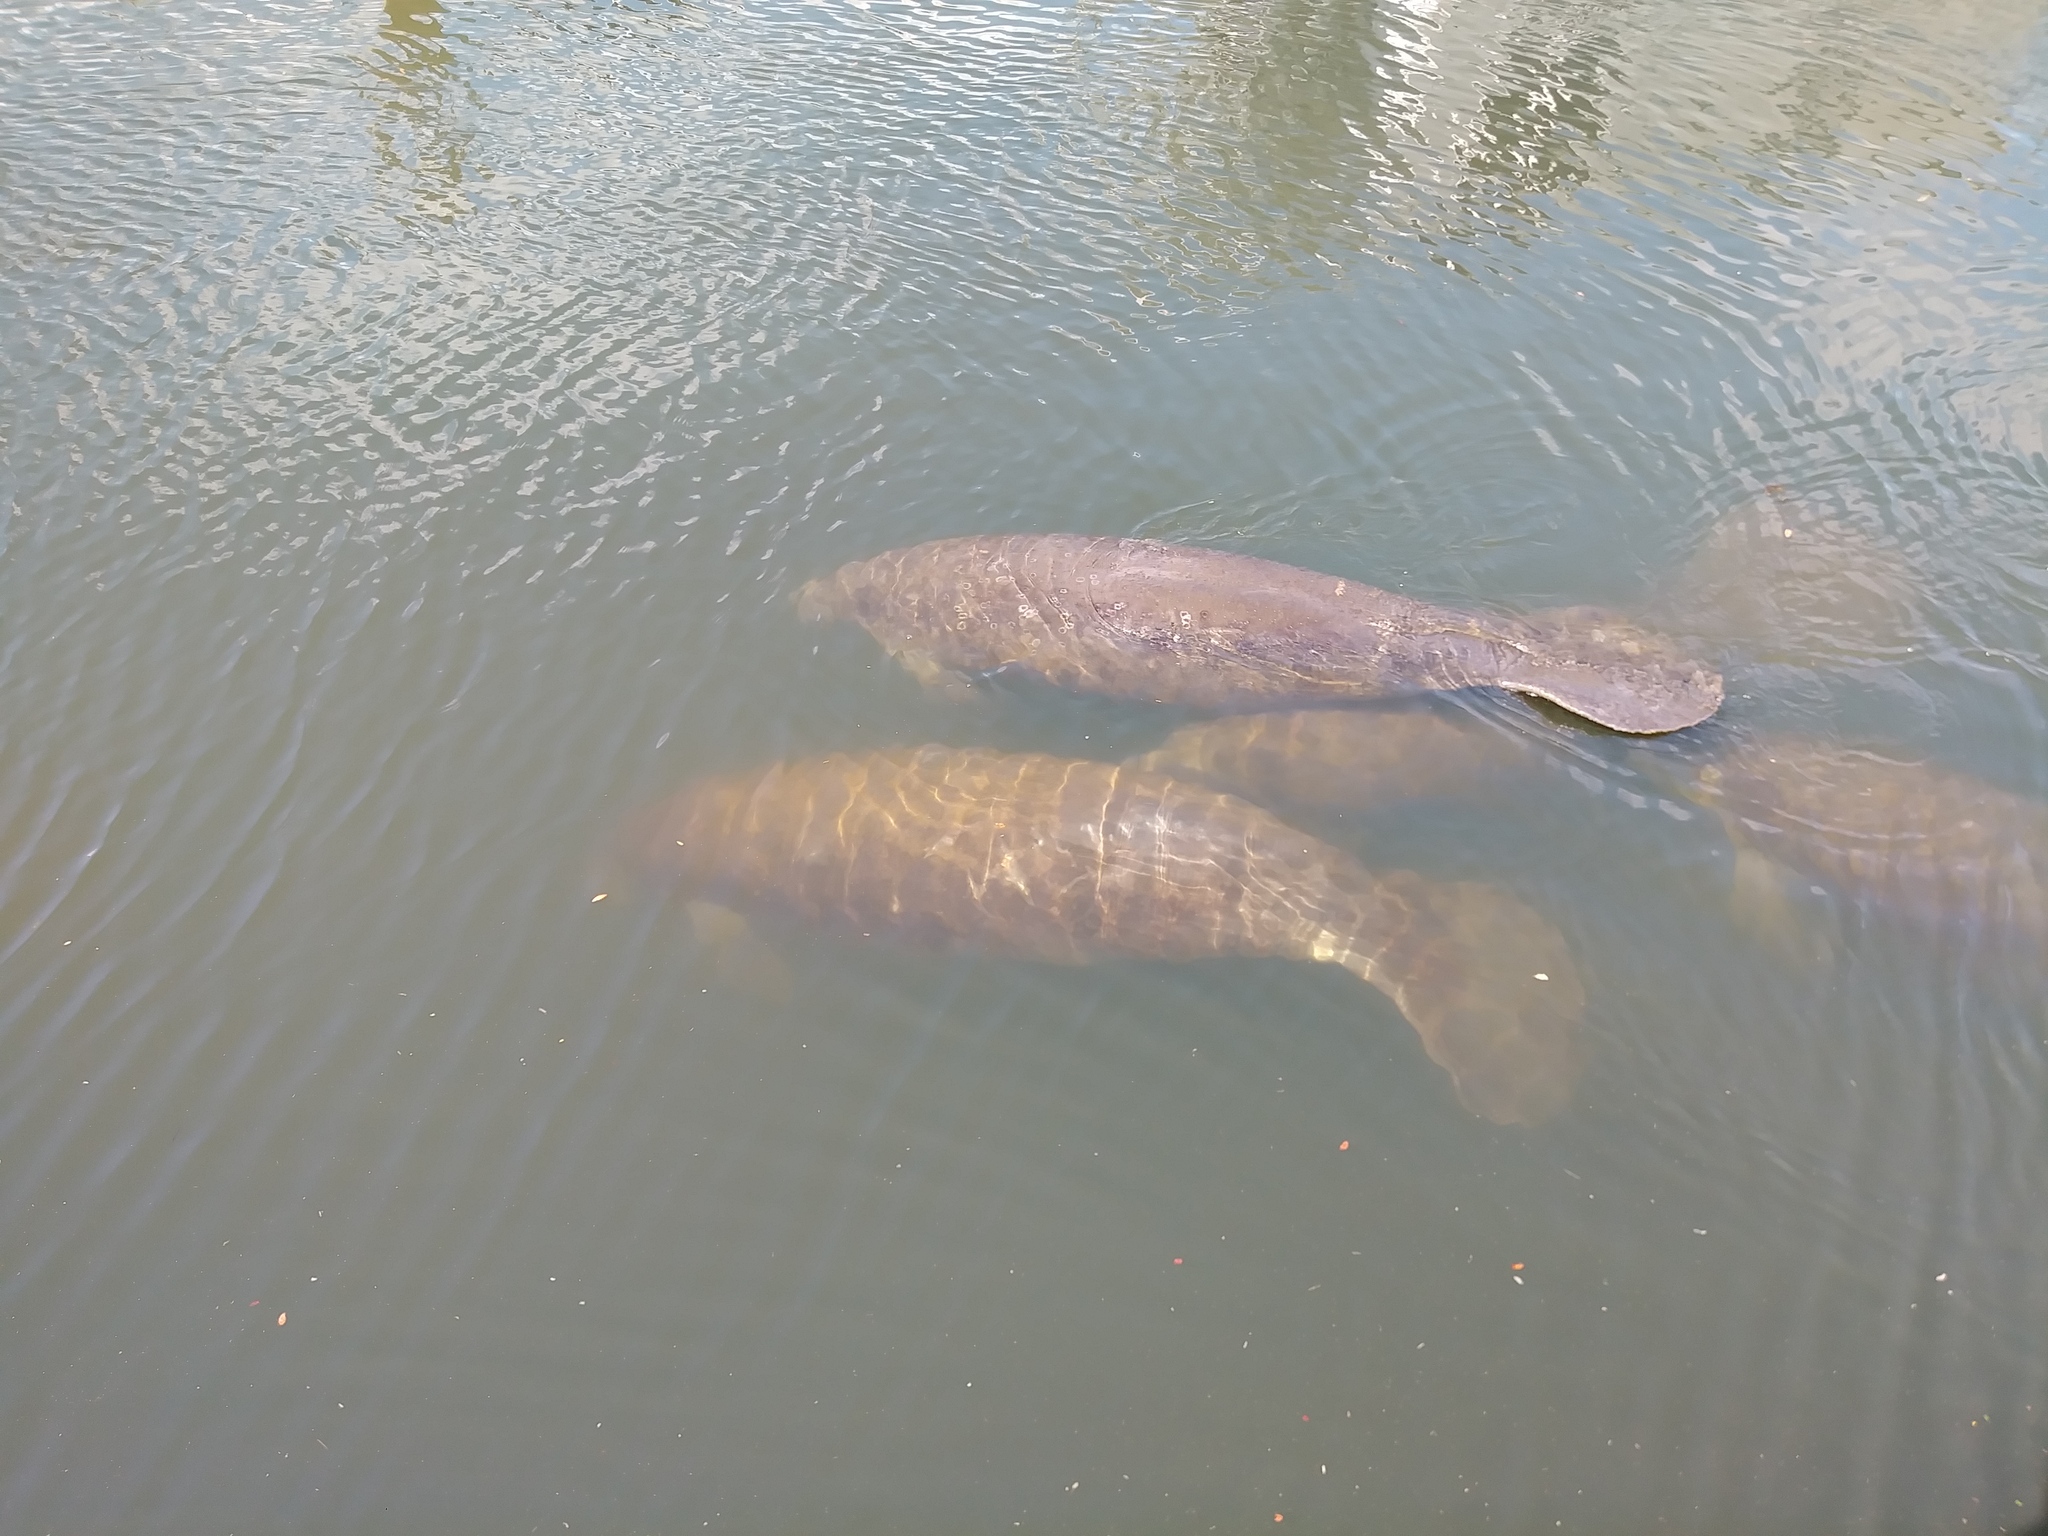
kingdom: Animalia
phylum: Chordata
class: Mammalia
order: Sirenia
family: Trichechidae
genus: Trichechus
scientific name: Trichechus manatus
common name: West indian manatee
